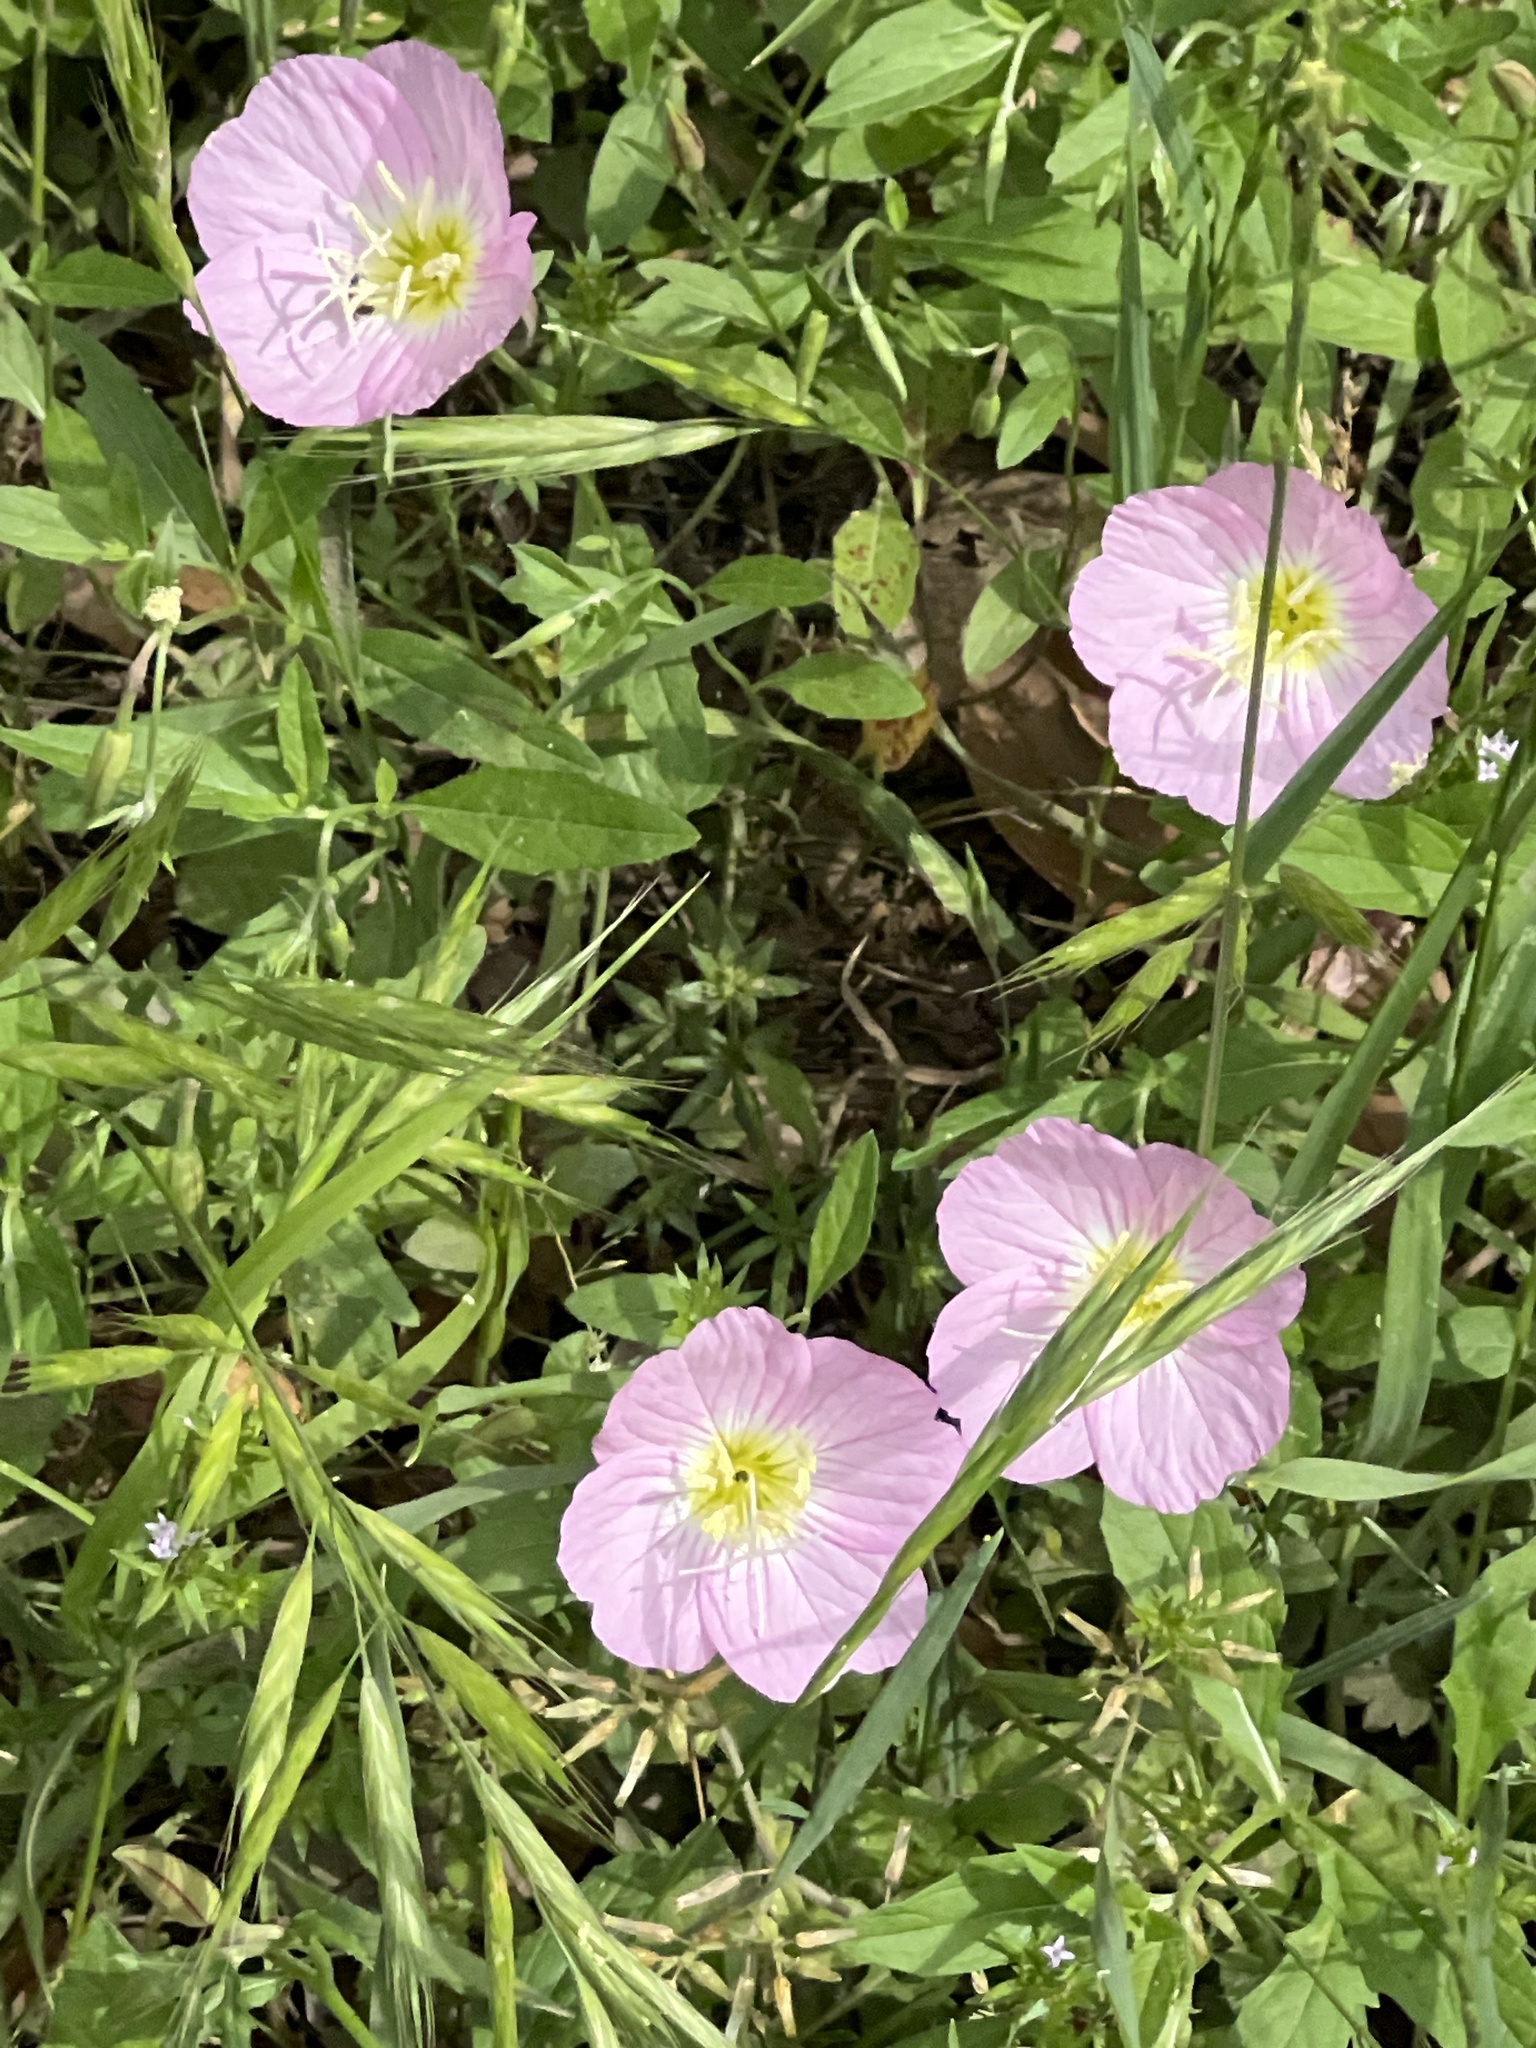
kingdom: Plantae
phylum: Tracheophyta
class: Magnoliopsida
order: Myrtales
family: Onagraceae
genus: Oenothera
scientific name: Oenothera speciosa
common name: White evening-primrose
